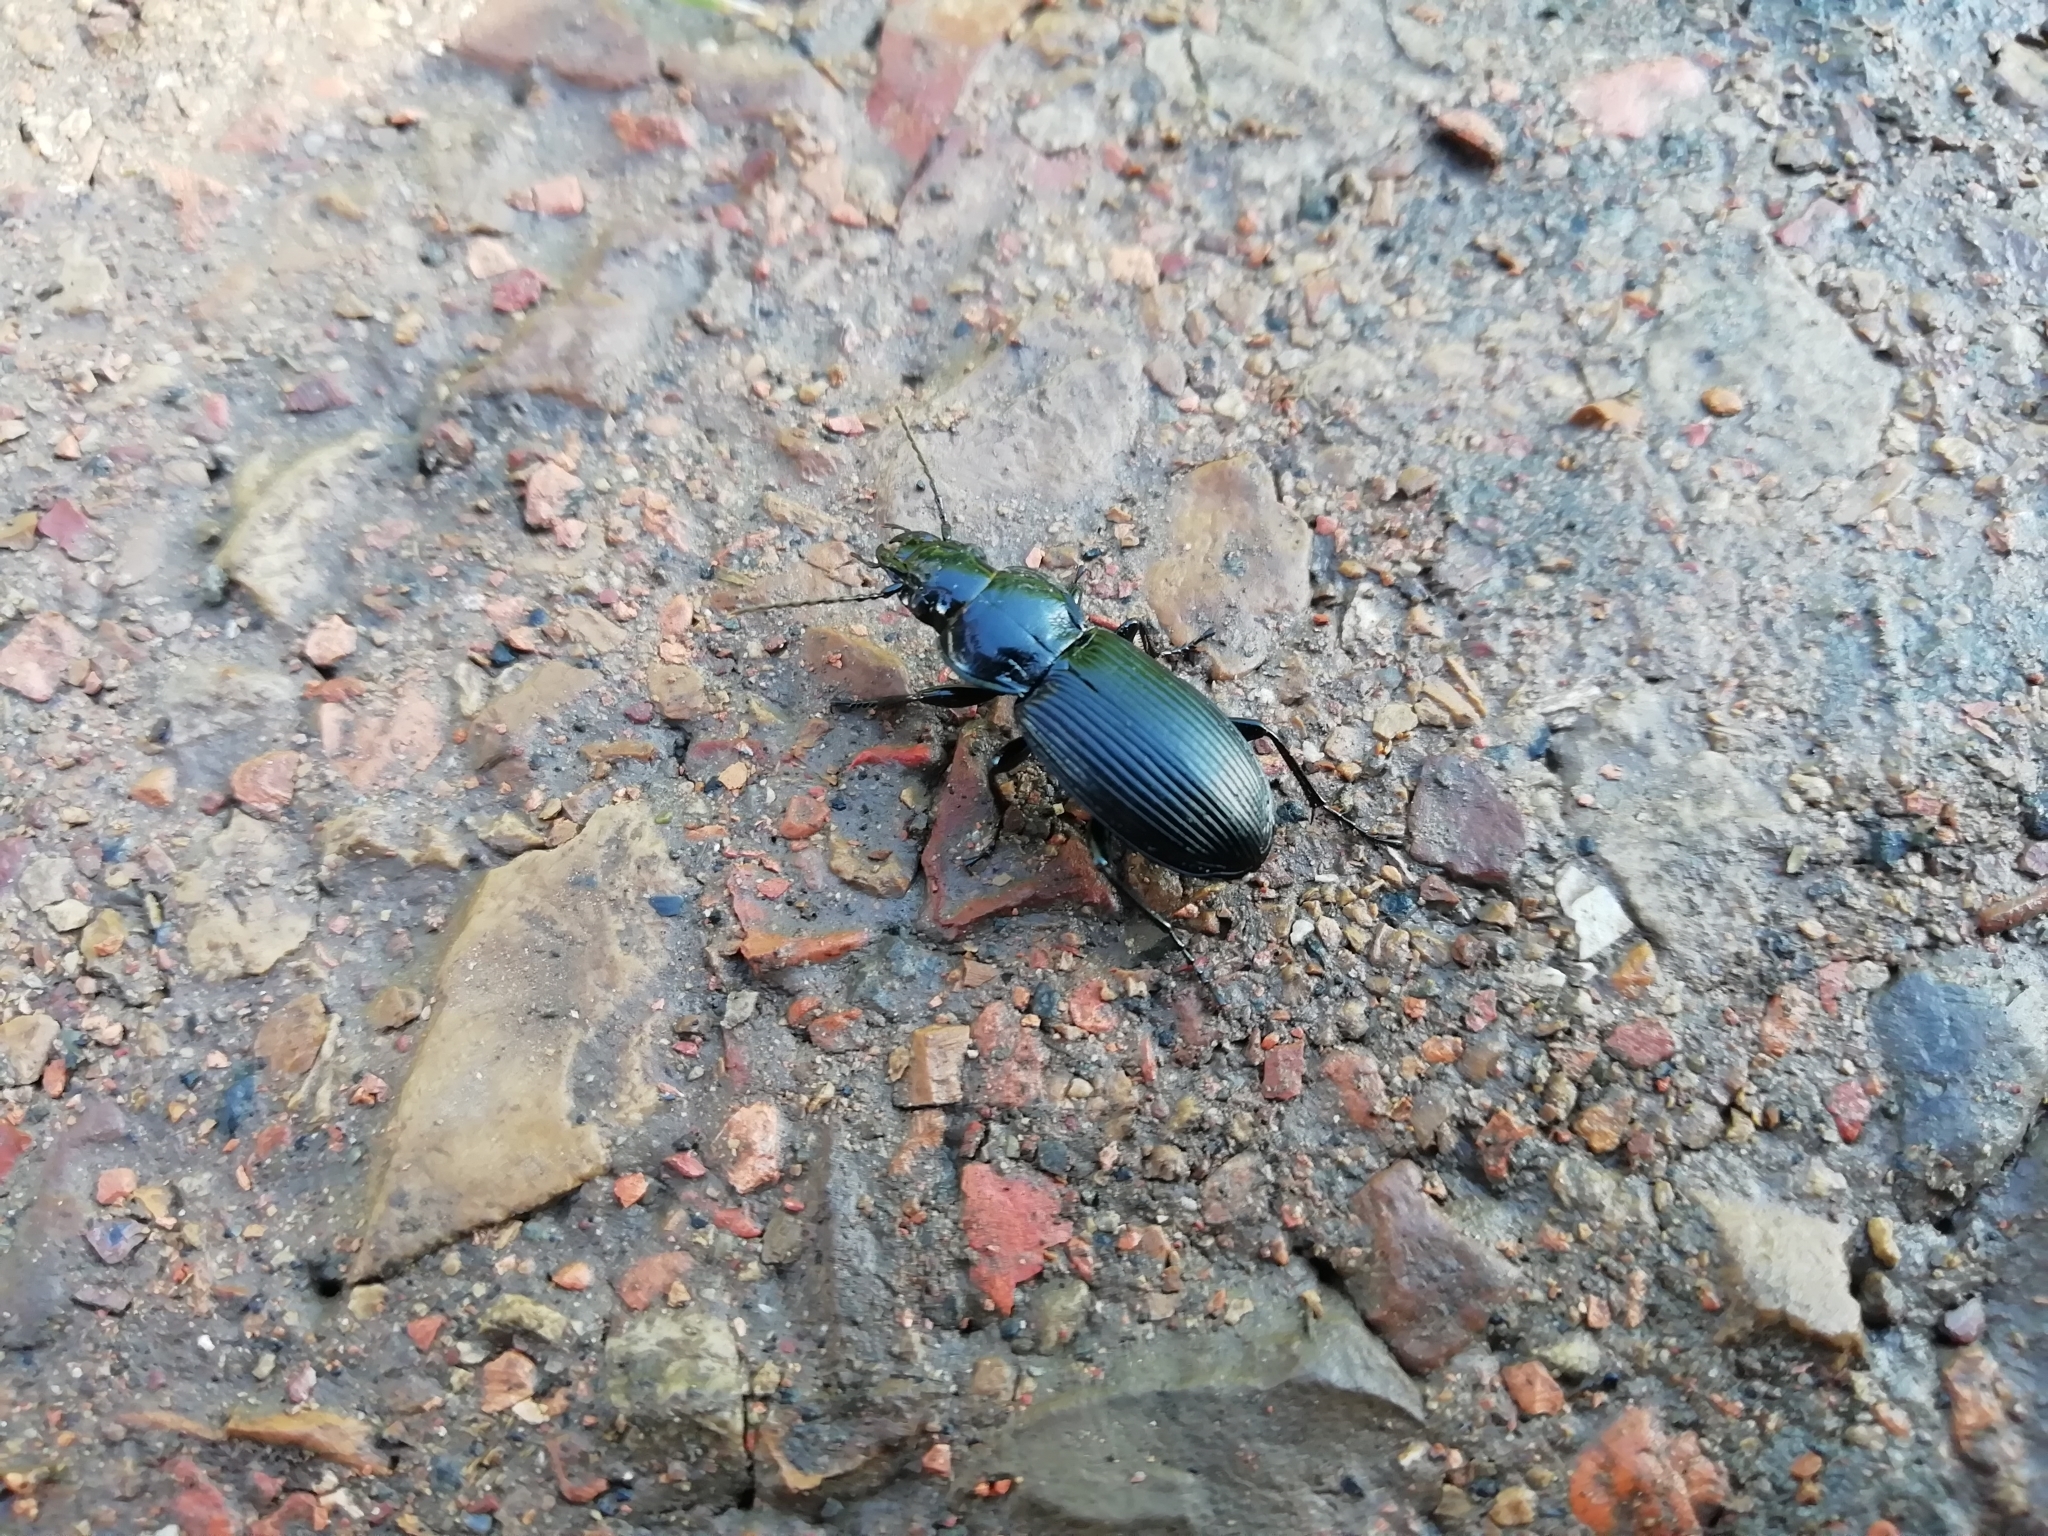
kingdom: Animalia
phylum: Arthropoda
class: Insecta
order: Coleoptera
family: Carabidae
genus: Pterostichus
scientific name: Pterostichus niger
